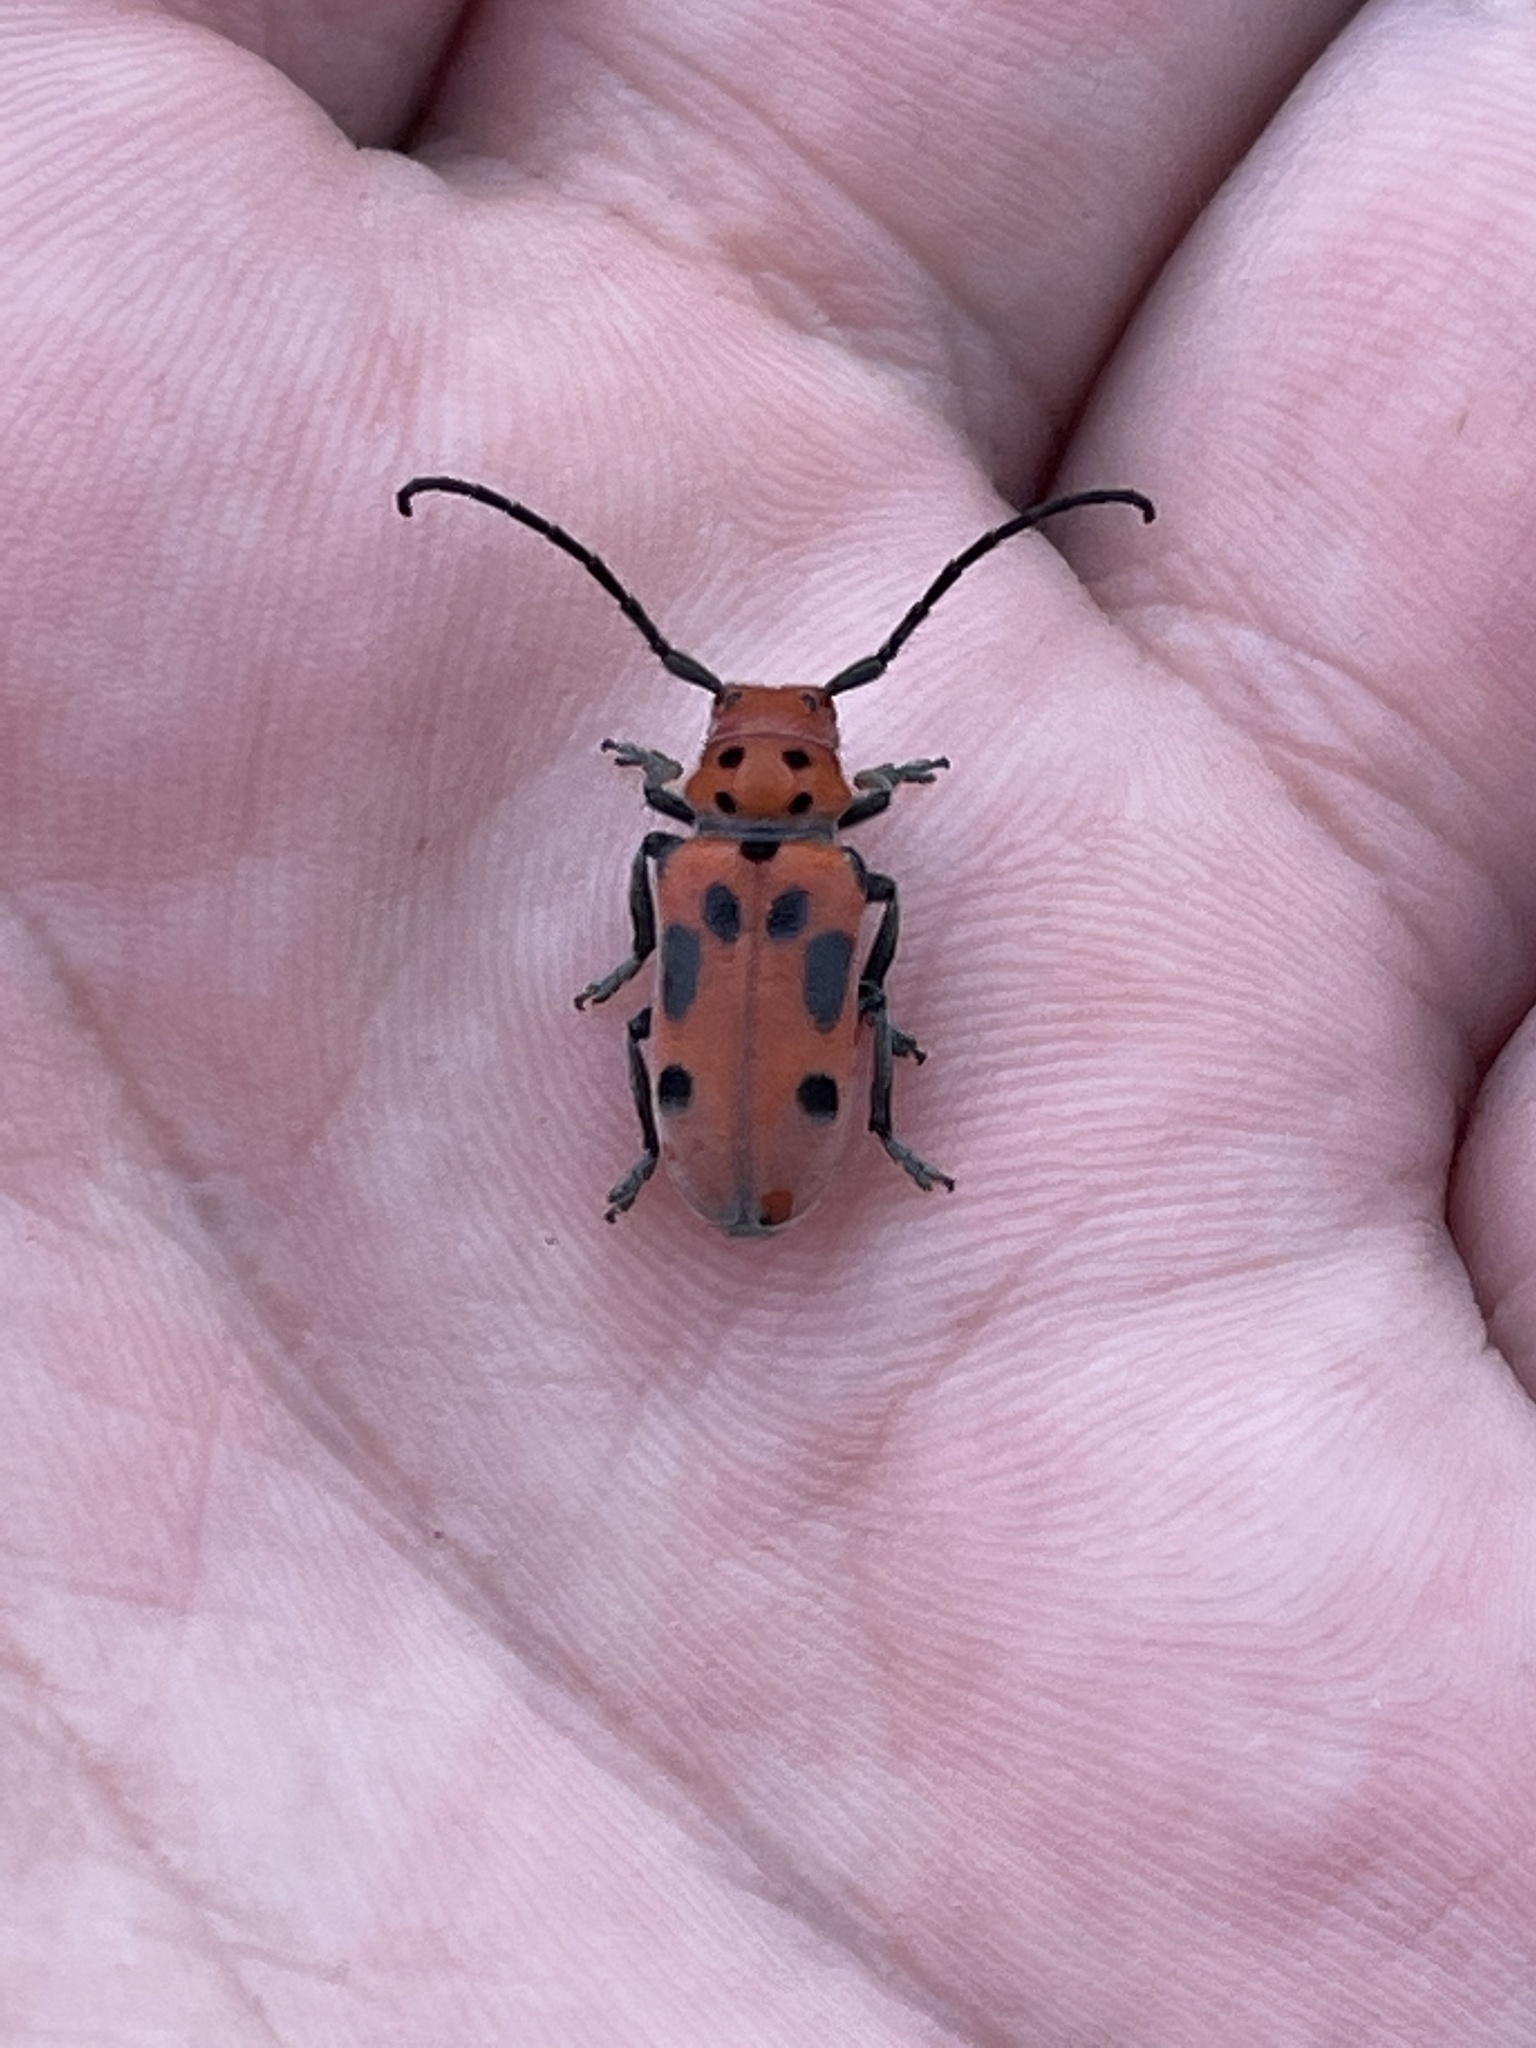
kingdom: Animalia
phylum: Arthropoda
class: Insecta
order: Coleoptera
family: Cerambycidae
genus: Tetraopes
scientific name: Tetraopes tetrophthalmus
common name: Red milkweed beetle
